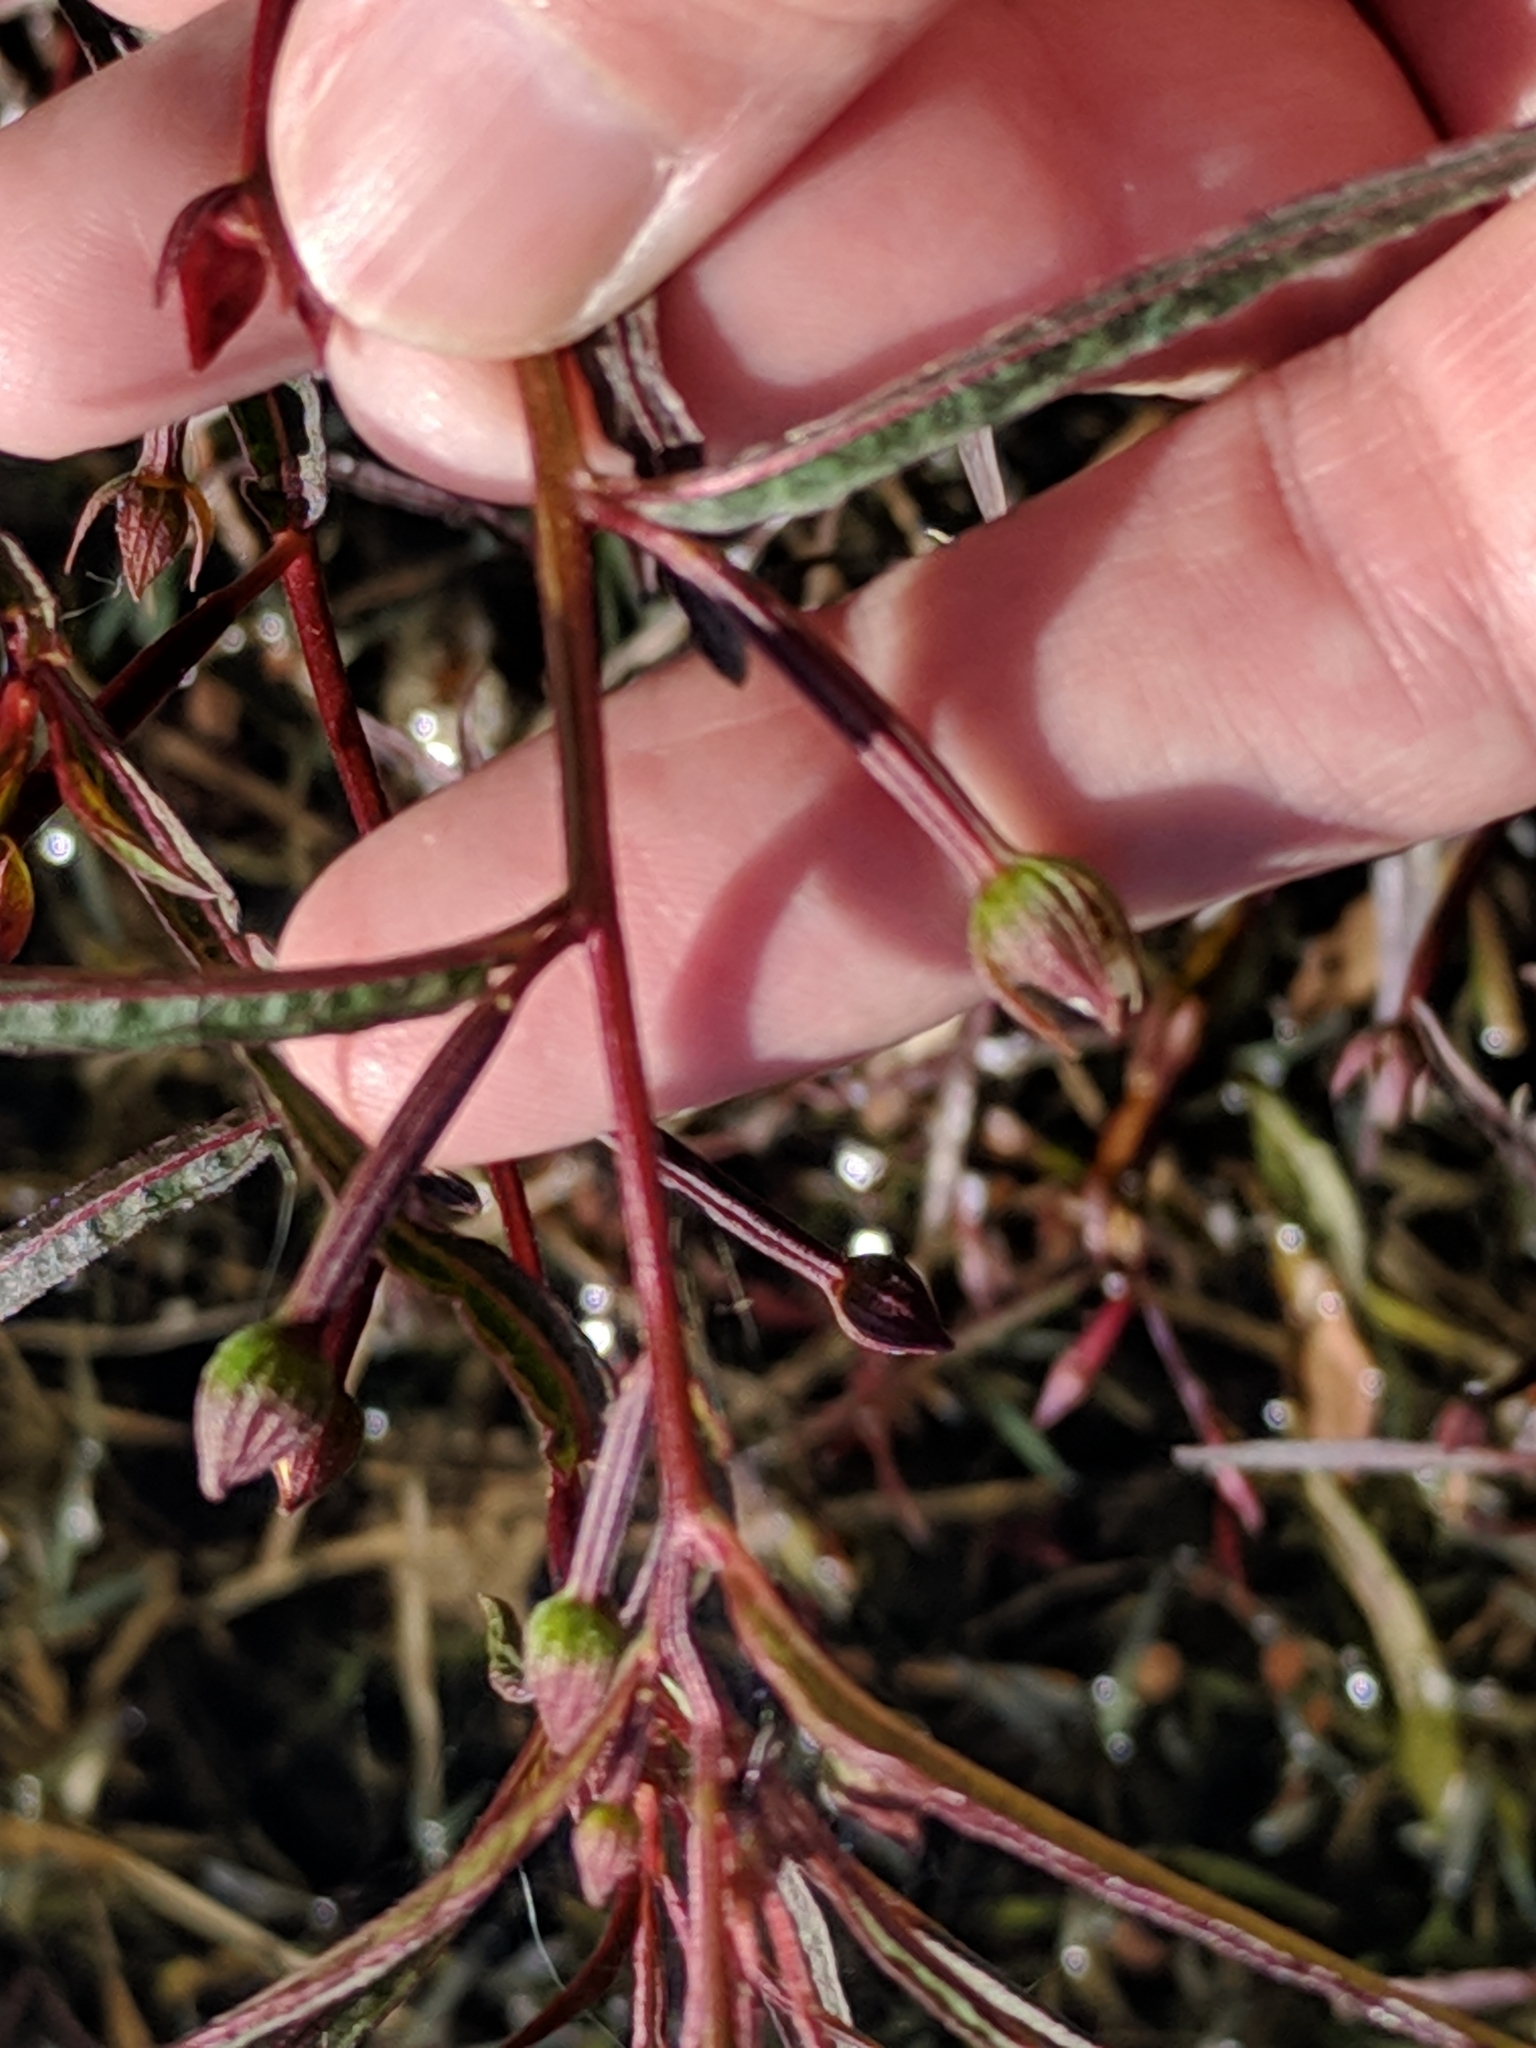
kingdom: Plantae
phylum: Tracheophyta
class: Magnoliopsida
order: Myrtales
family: Onagraceae
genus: Ludwigia
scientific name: Ludwigia octovalvis
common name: Water-primrose
